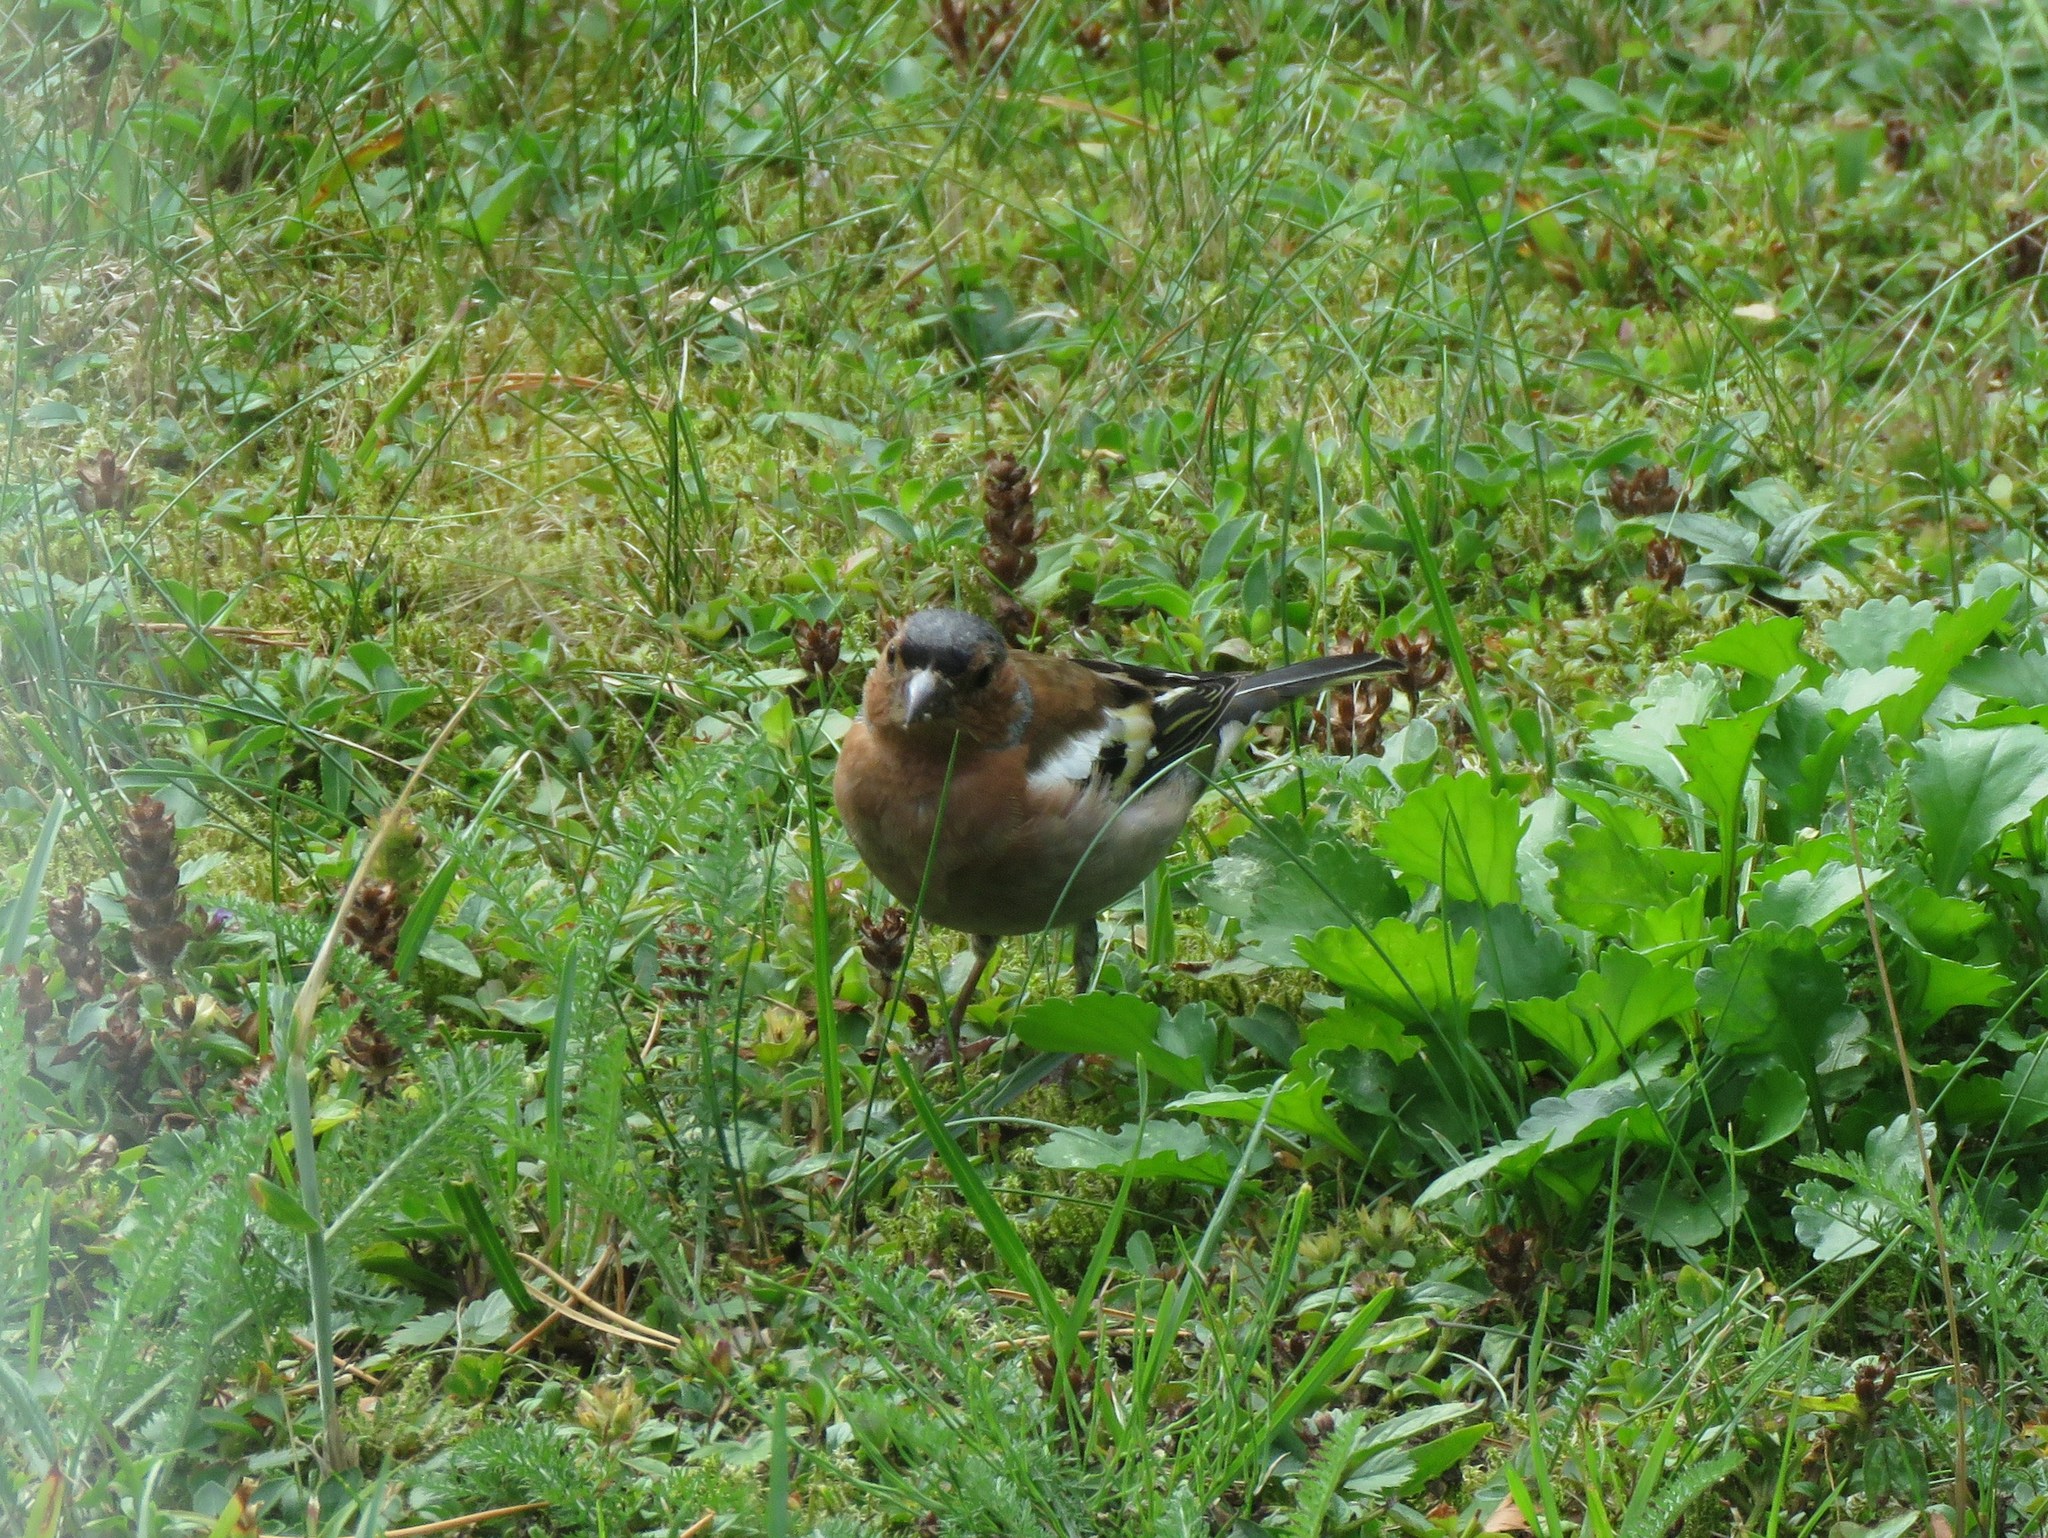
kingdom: Animalia
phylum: Chordata
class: Aves
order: Passeriformes
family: Fringillidae
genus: Fringilla
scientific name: Fringilla coelebs
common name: Common chaffinch
